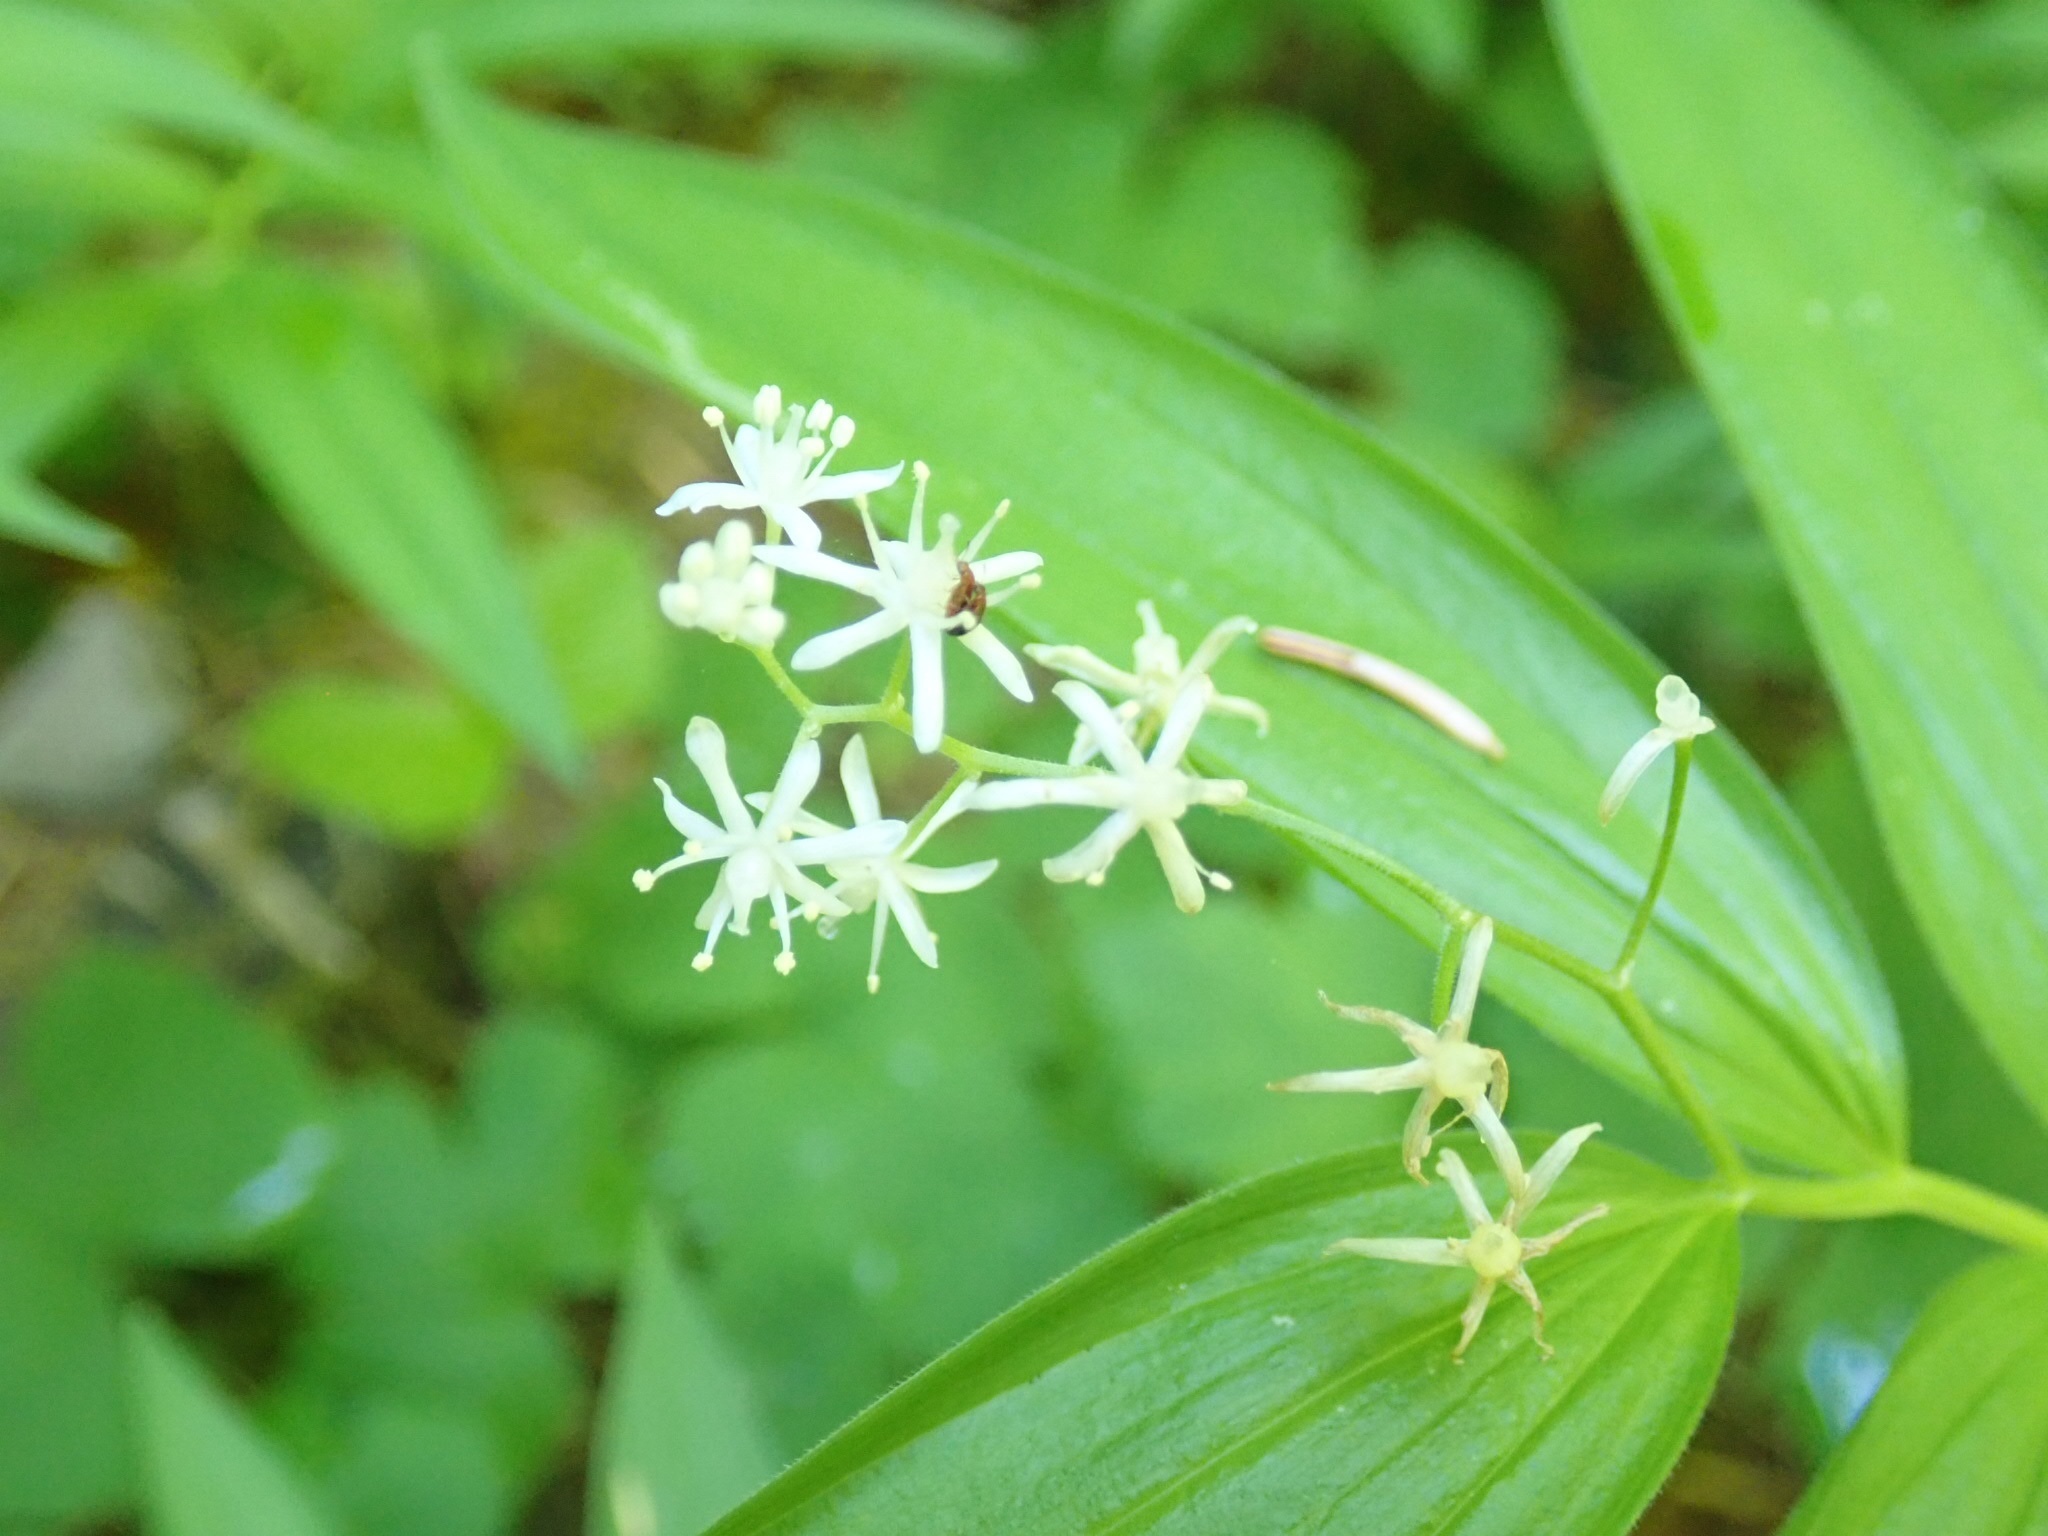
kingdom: Plantae
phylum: Tracheophyta
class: Liliopsida
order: Asparagales
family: Asparagaceae
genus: Maianthemum
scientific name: Maianthemum stellatum
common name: Little false solomon's seal
